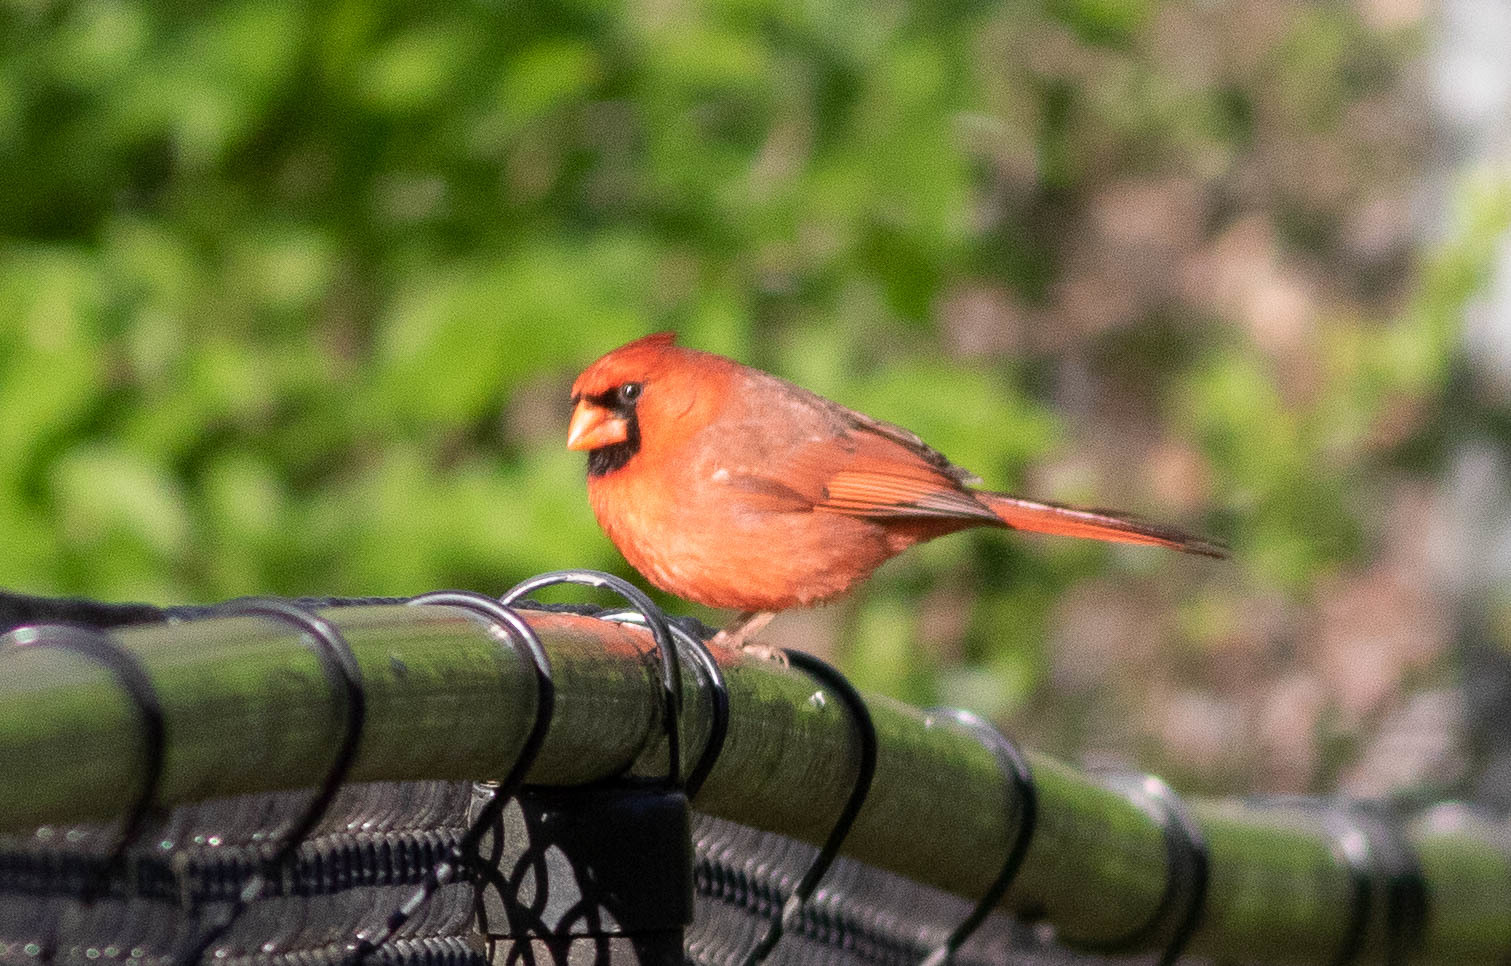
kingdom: Animalia
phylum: Chordata
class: Aves
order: Passeriformes
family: Cardinalidae
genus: Cardinalis
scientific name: Cardinalis cardinalis
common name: Northern cardinal
